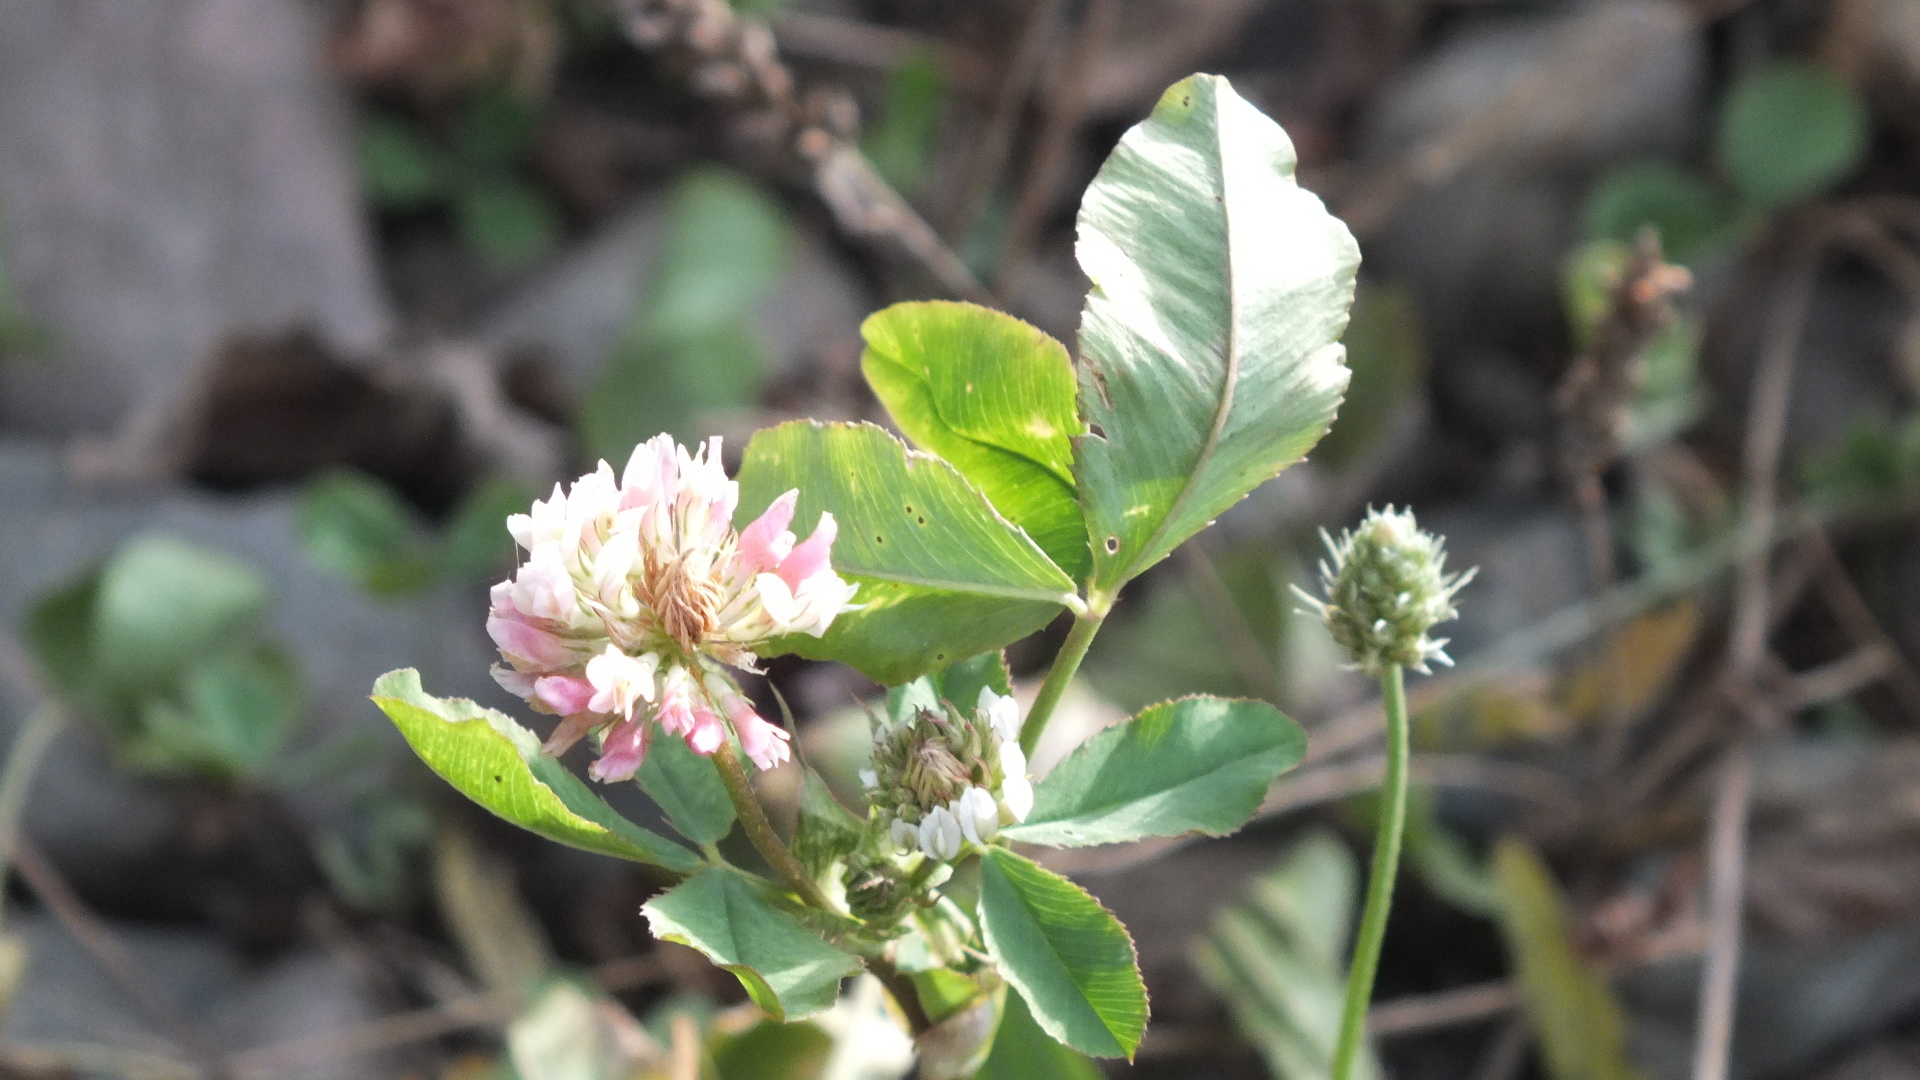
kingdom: Plantae
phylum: Tracheophyta
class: Magnoliopsida
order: Fabales
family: Fabaceae
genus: Trifolium
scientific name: Trifolium hybridum
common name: Alsike clover
